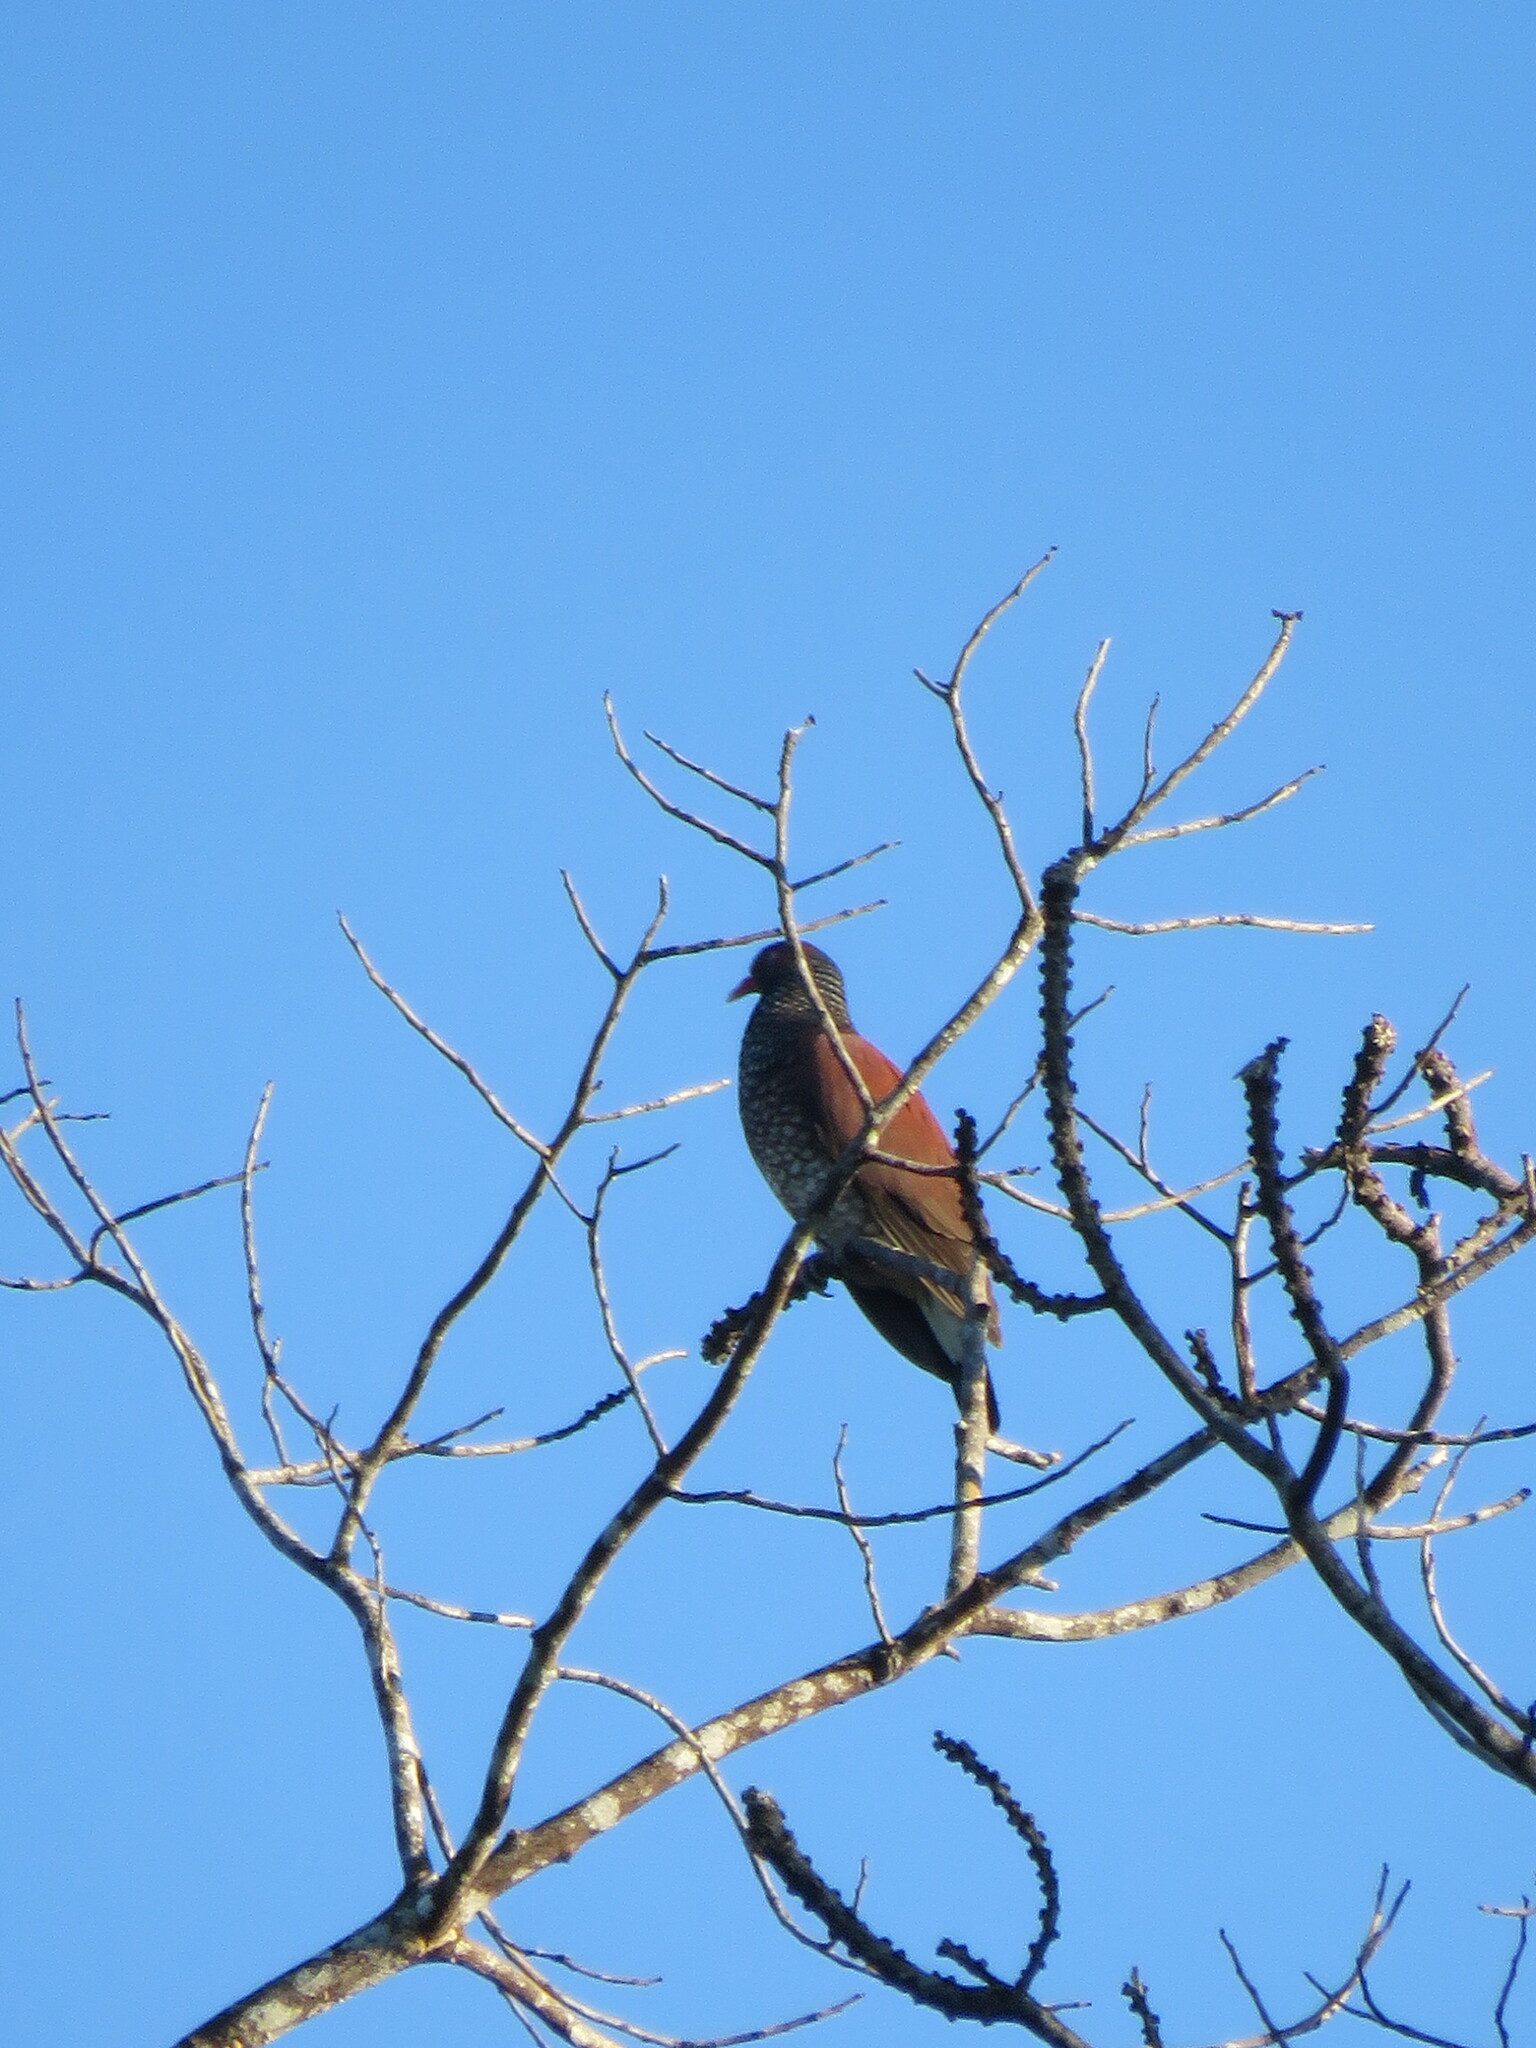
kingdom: Animalia
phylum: Chordata
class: Aves
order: Columbiformes
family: Columbidae
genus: Patagioenas
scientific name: Patagioenas speciosa
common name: Scaled pigeon
